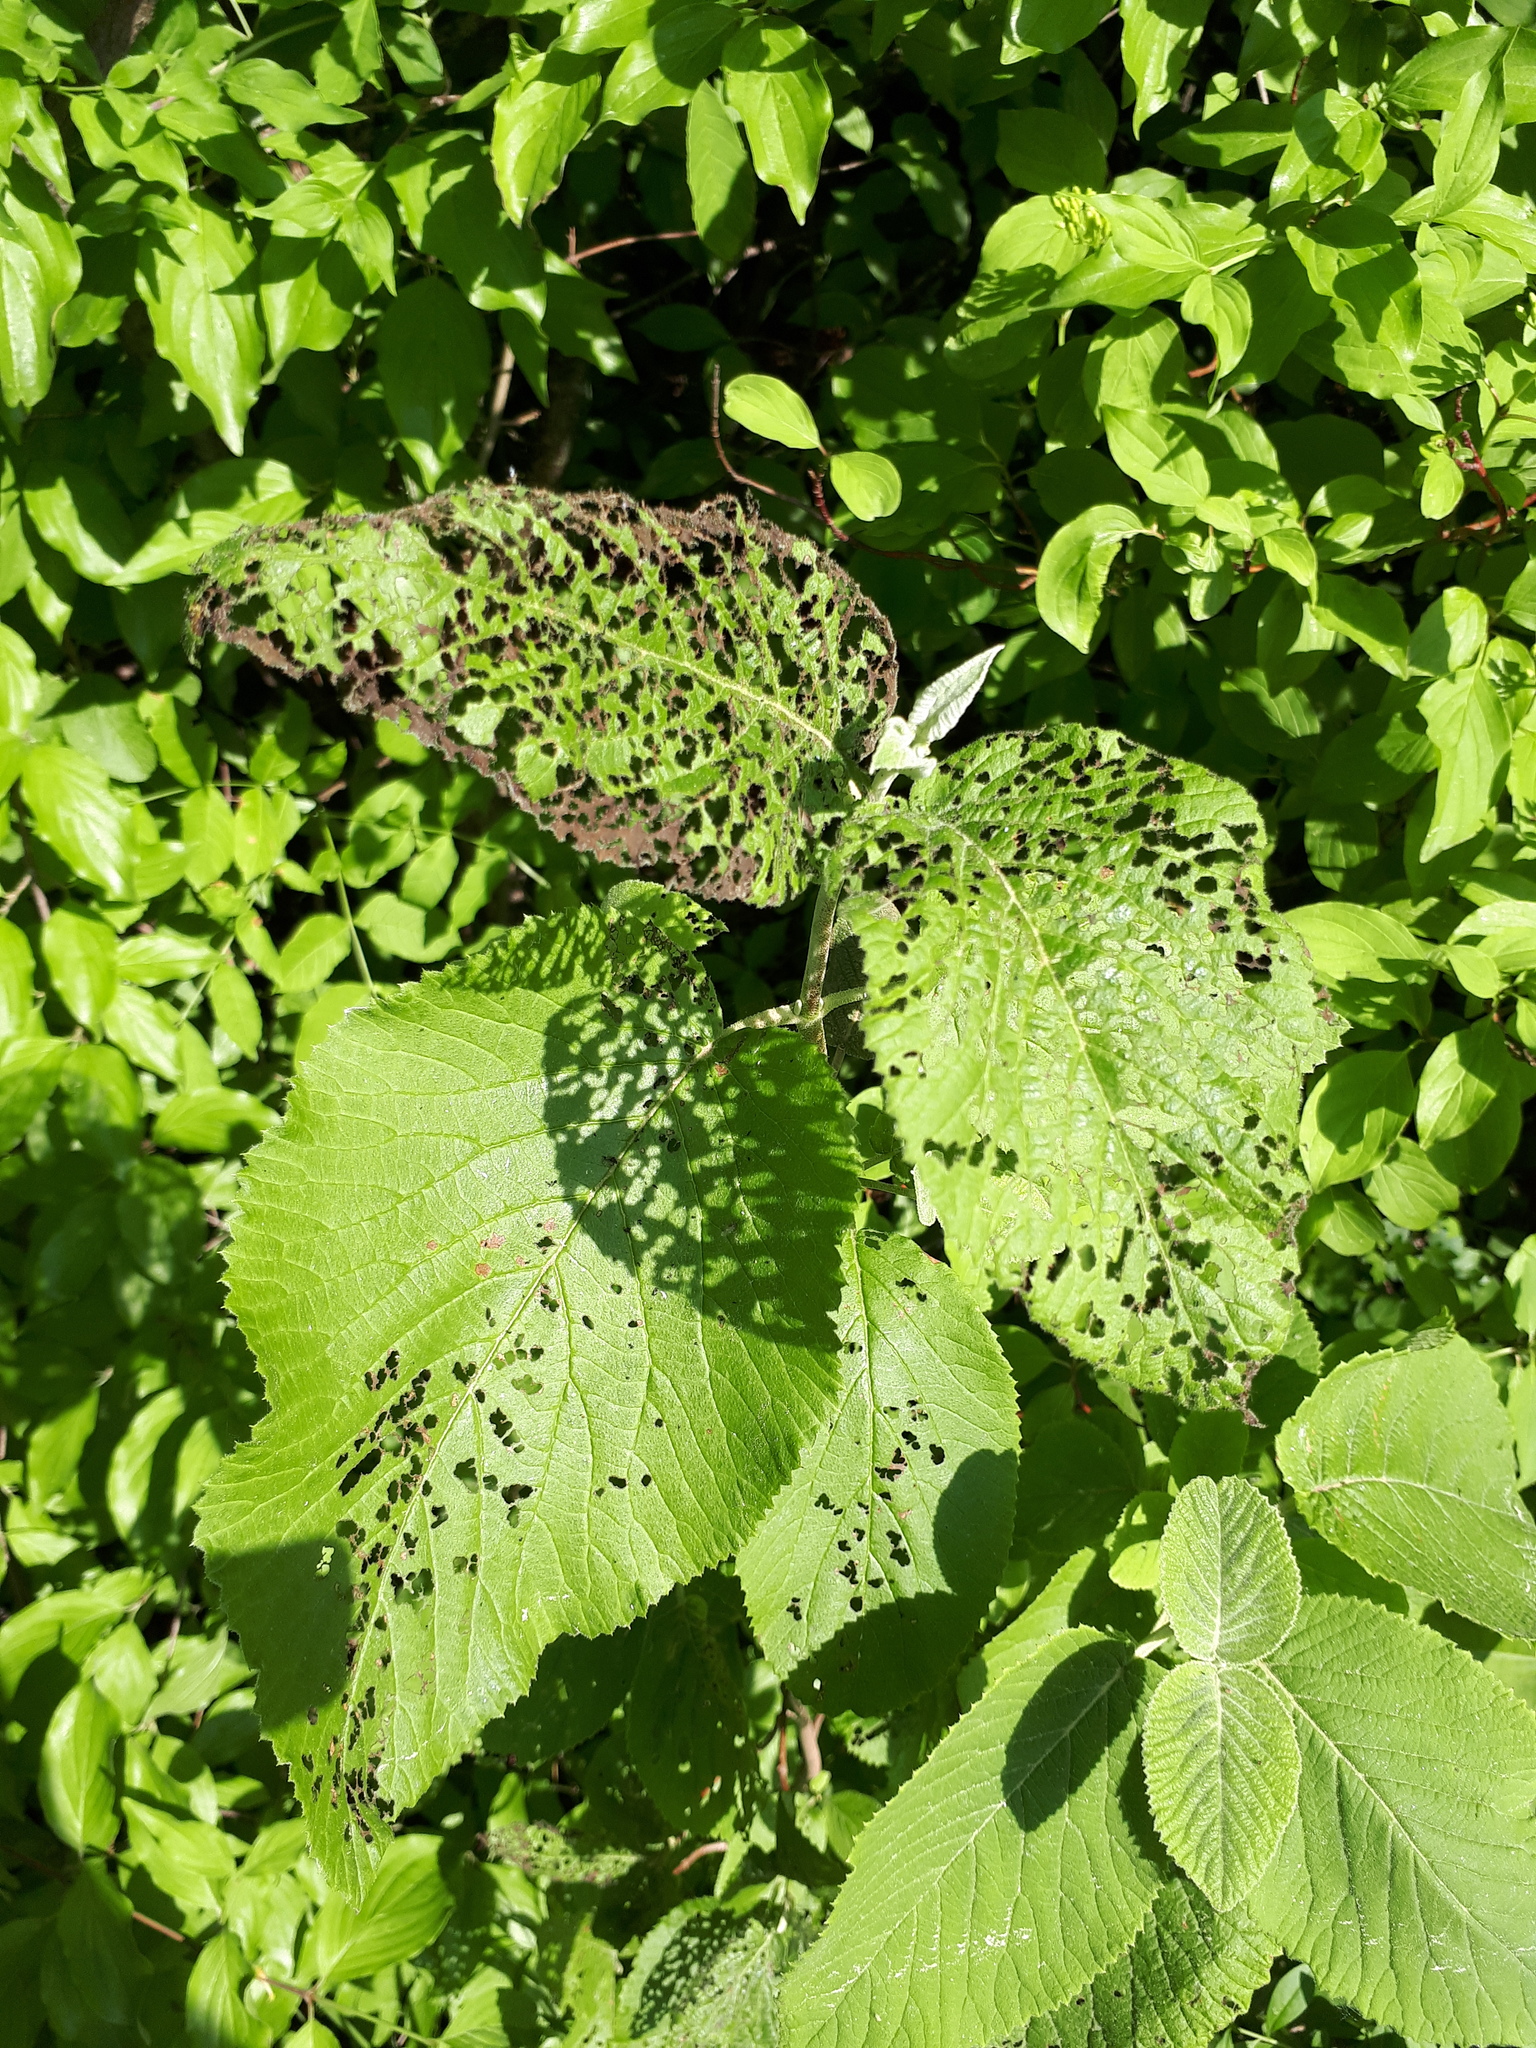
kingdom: Animalia
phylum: Arthropoda
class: Insecta
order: Coleoptera
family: Chrysomelidae
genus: Pyrrhalta
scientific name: Pyrrhalta viburni
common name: Guelder-rose leaf beetle
